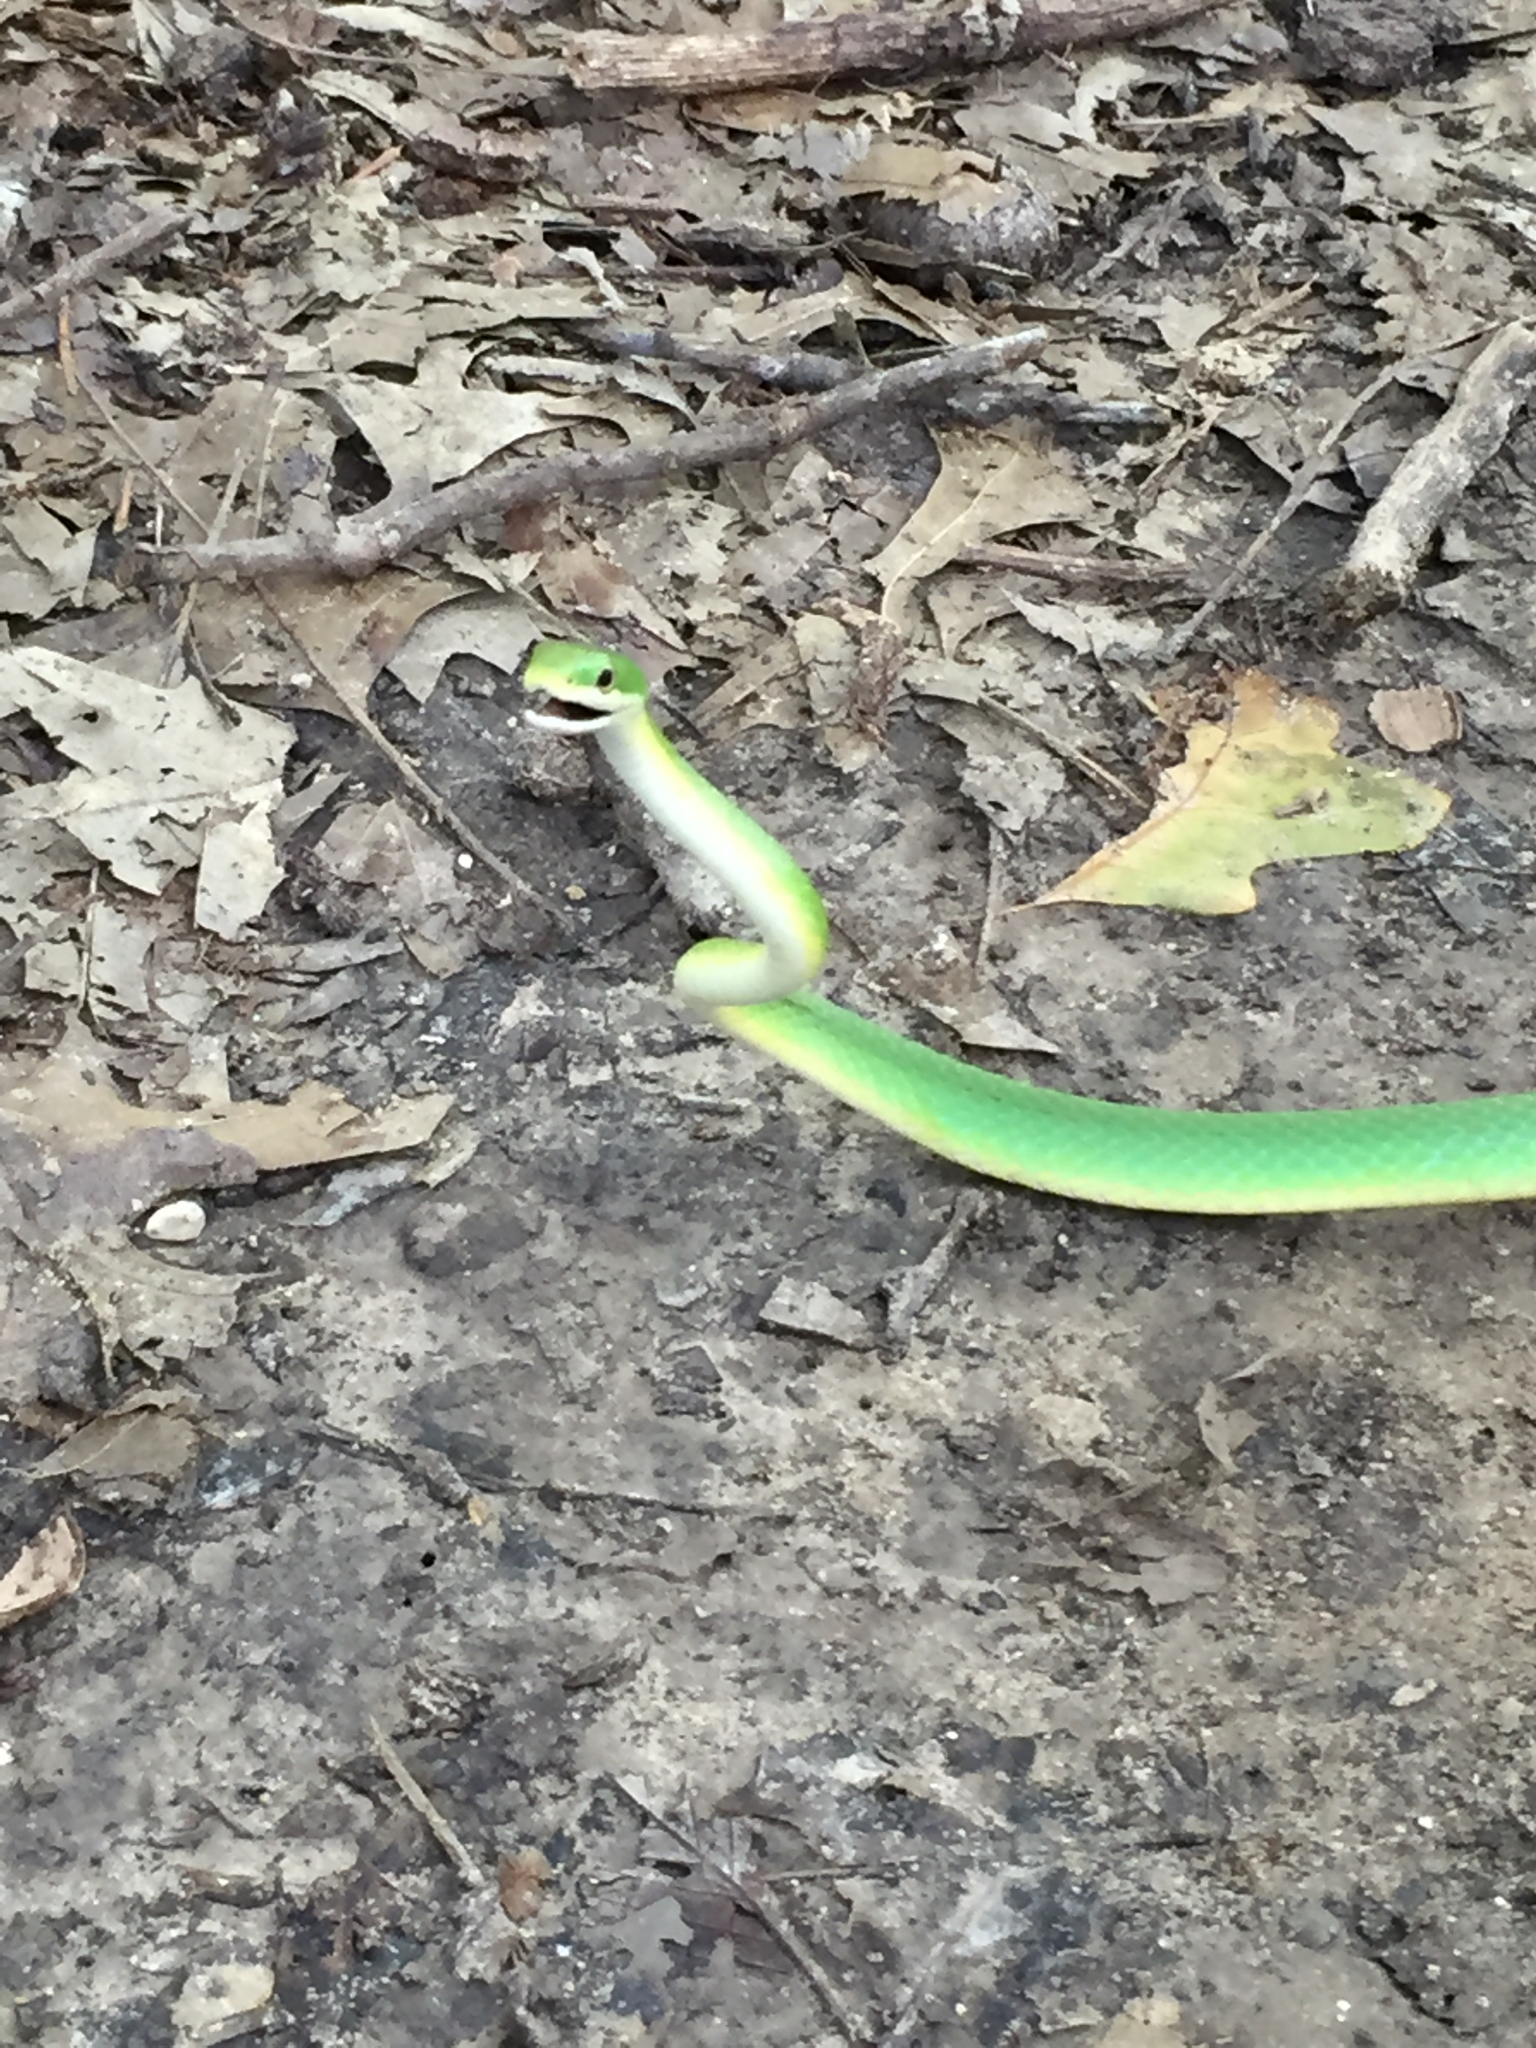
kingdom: Animalia
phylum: Chordata
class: Squamata
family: Colubridae
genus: Opheodrys
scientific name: Opheodrys aestivus
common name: Rough greensnake
